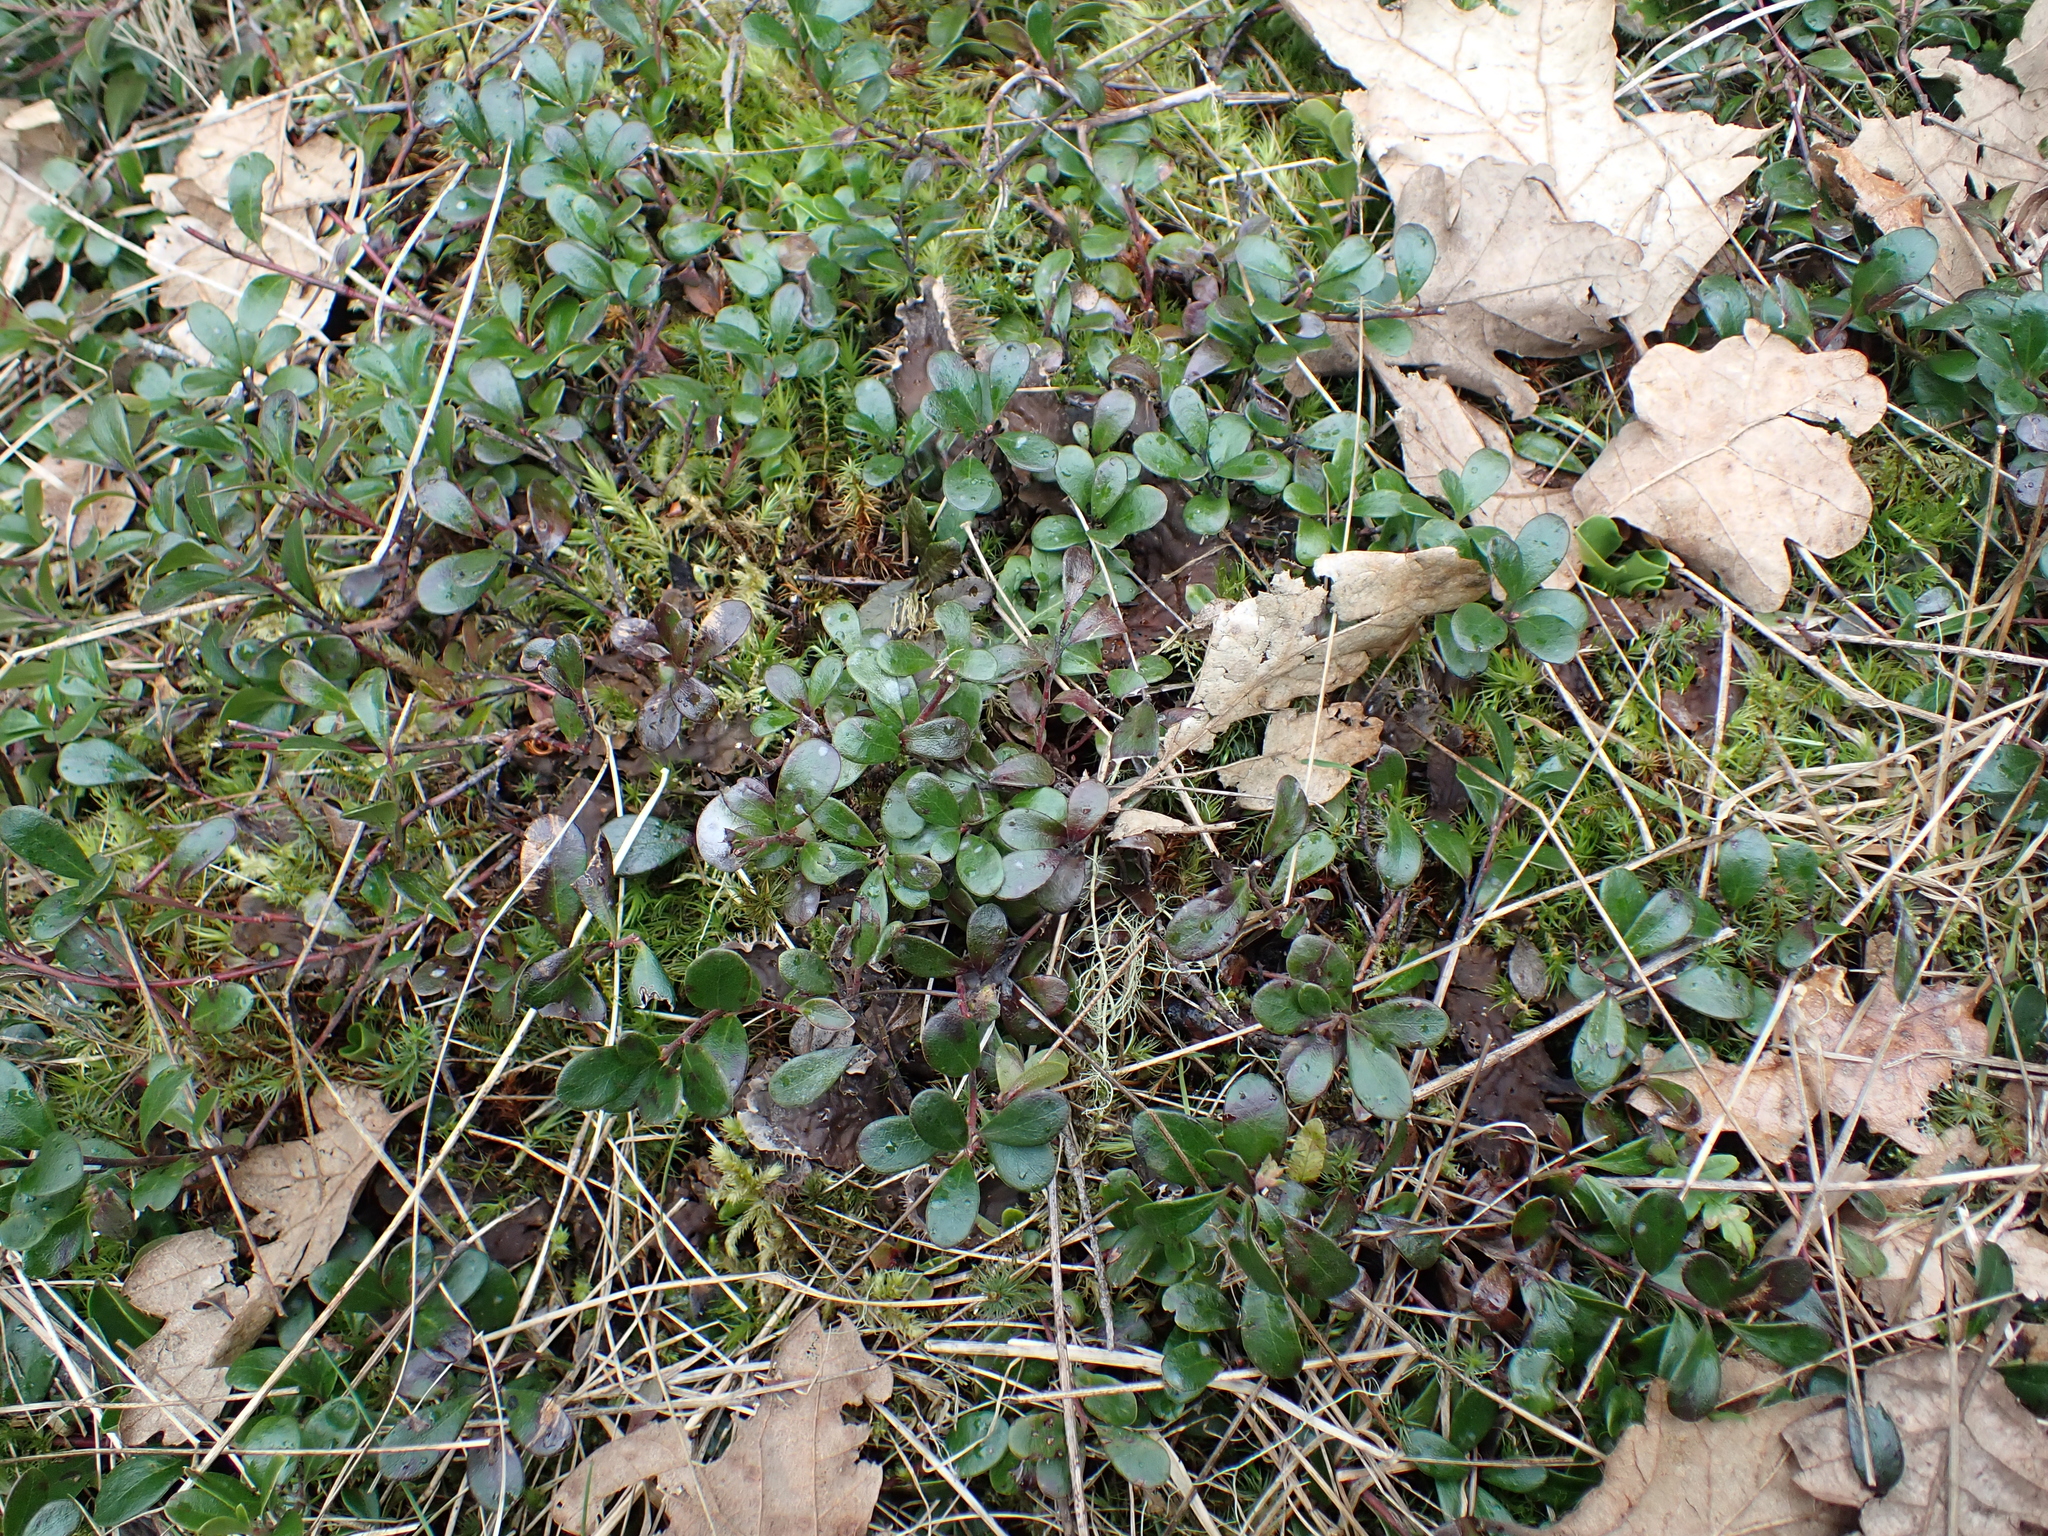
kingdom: Plantae
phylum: Tracheophyta
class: Magnoliopsida
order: Ericales
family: Ericaceae
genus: Arctostaphylos
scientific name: Arctostaphylos uva-ursi
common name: Bearberry
